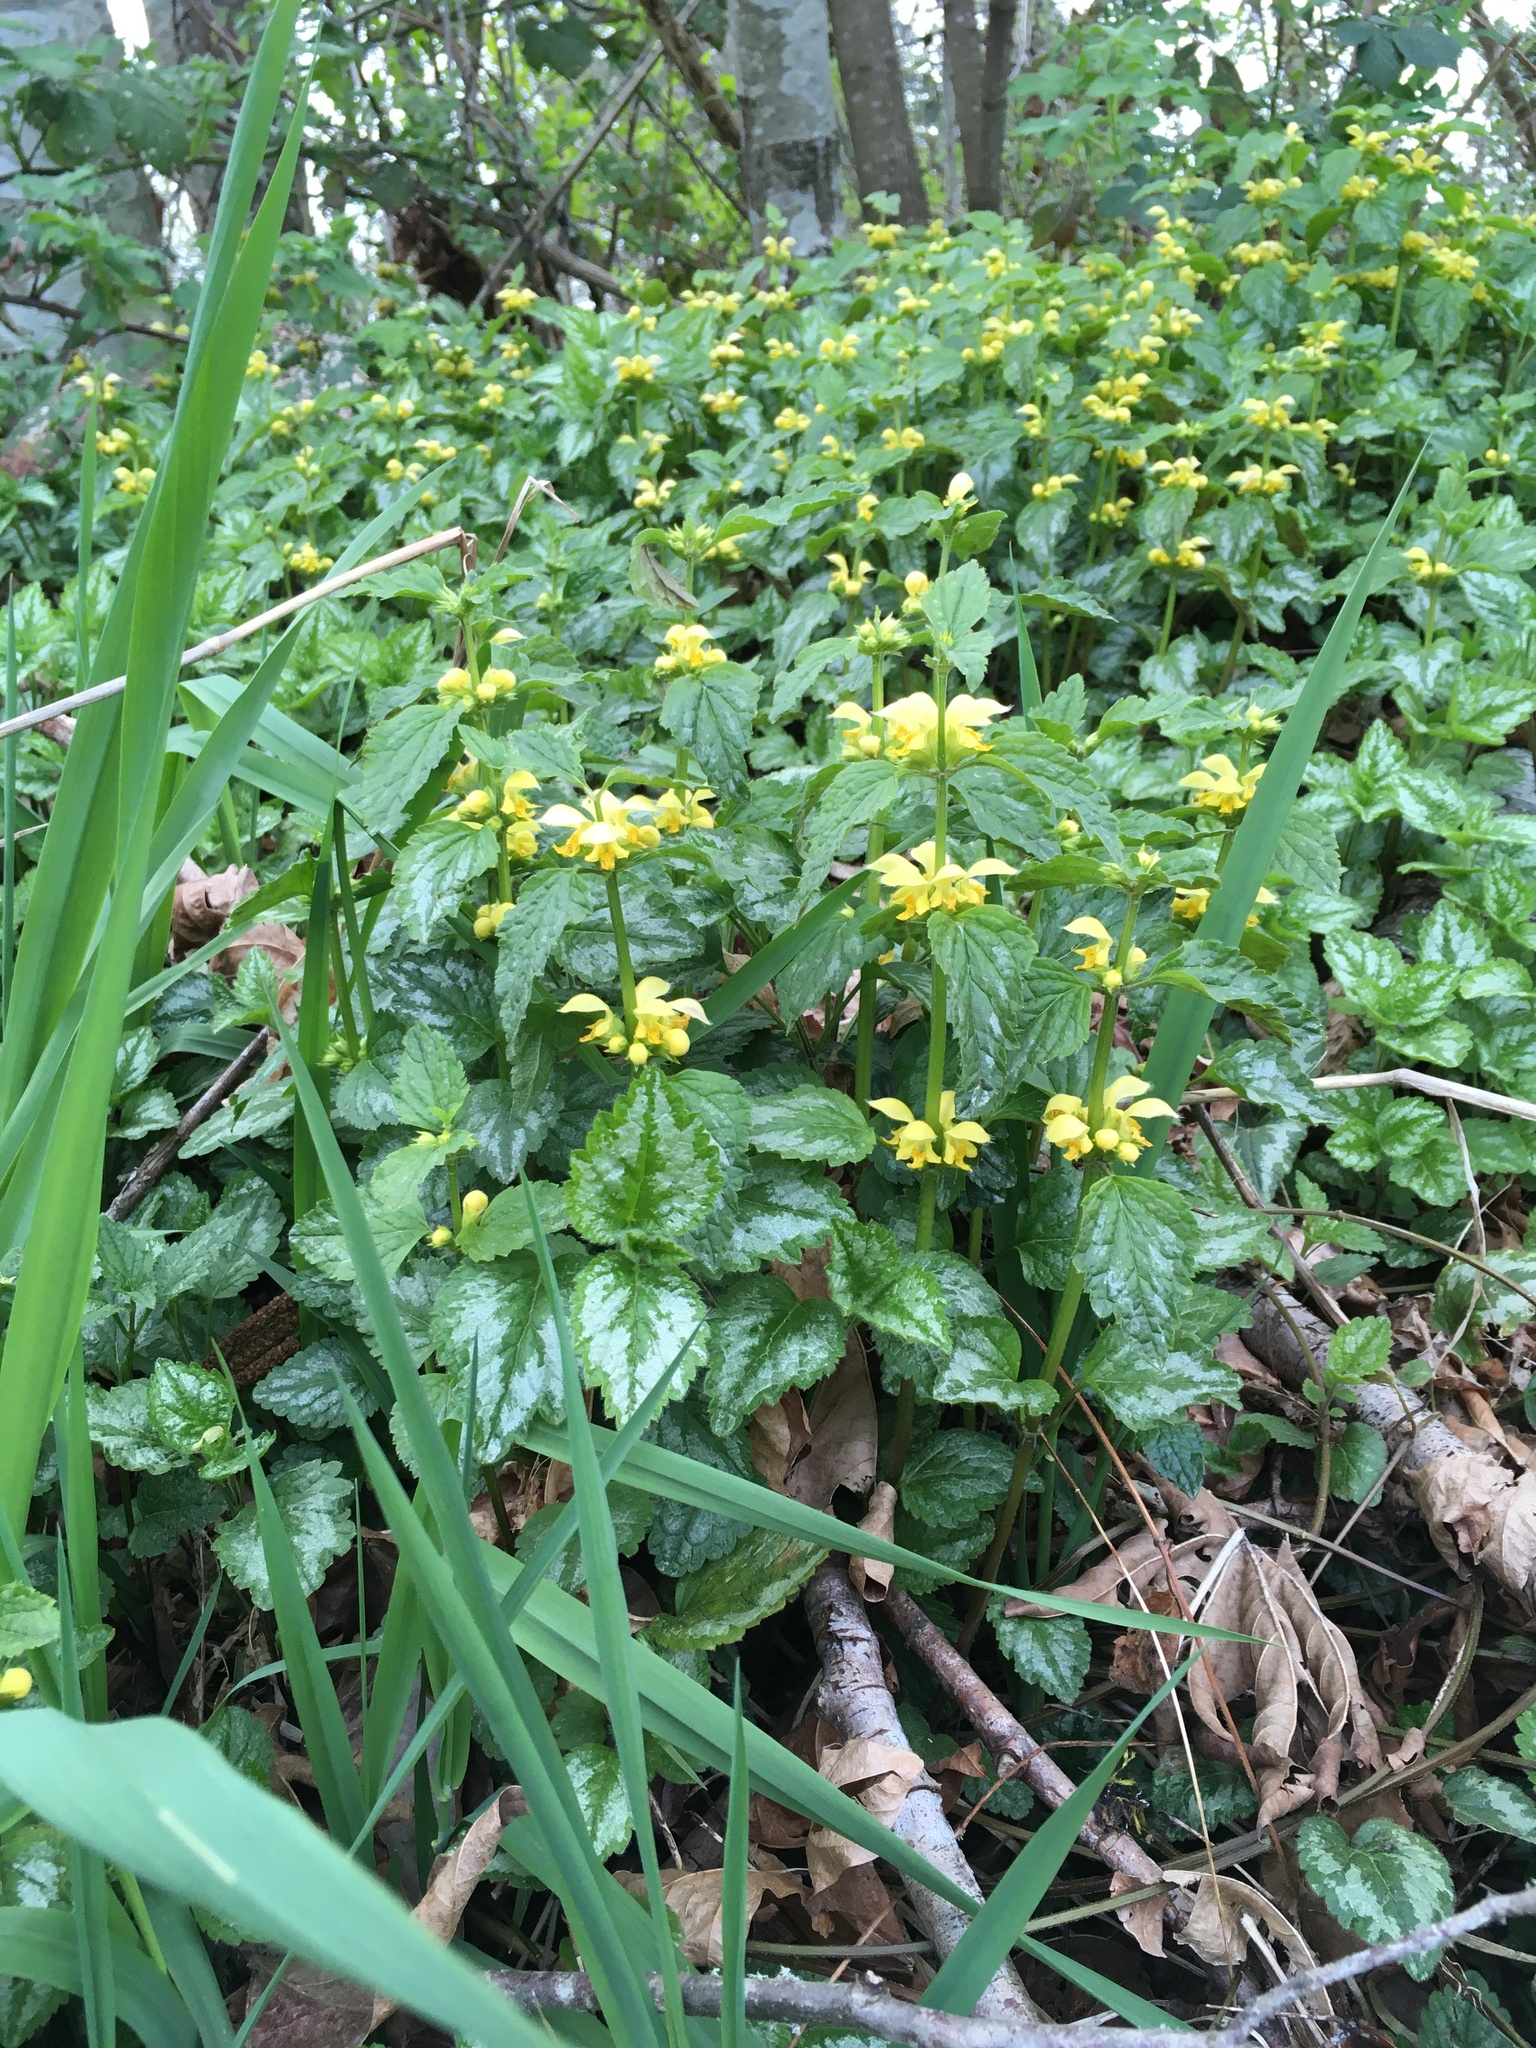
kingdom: Plantae
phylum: Tracheophyta
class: Magnoliopsida
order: Lamiales
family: Lamiaceae
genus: Lamium
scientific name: Lamium galeobdolon
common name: Yellow archangel
